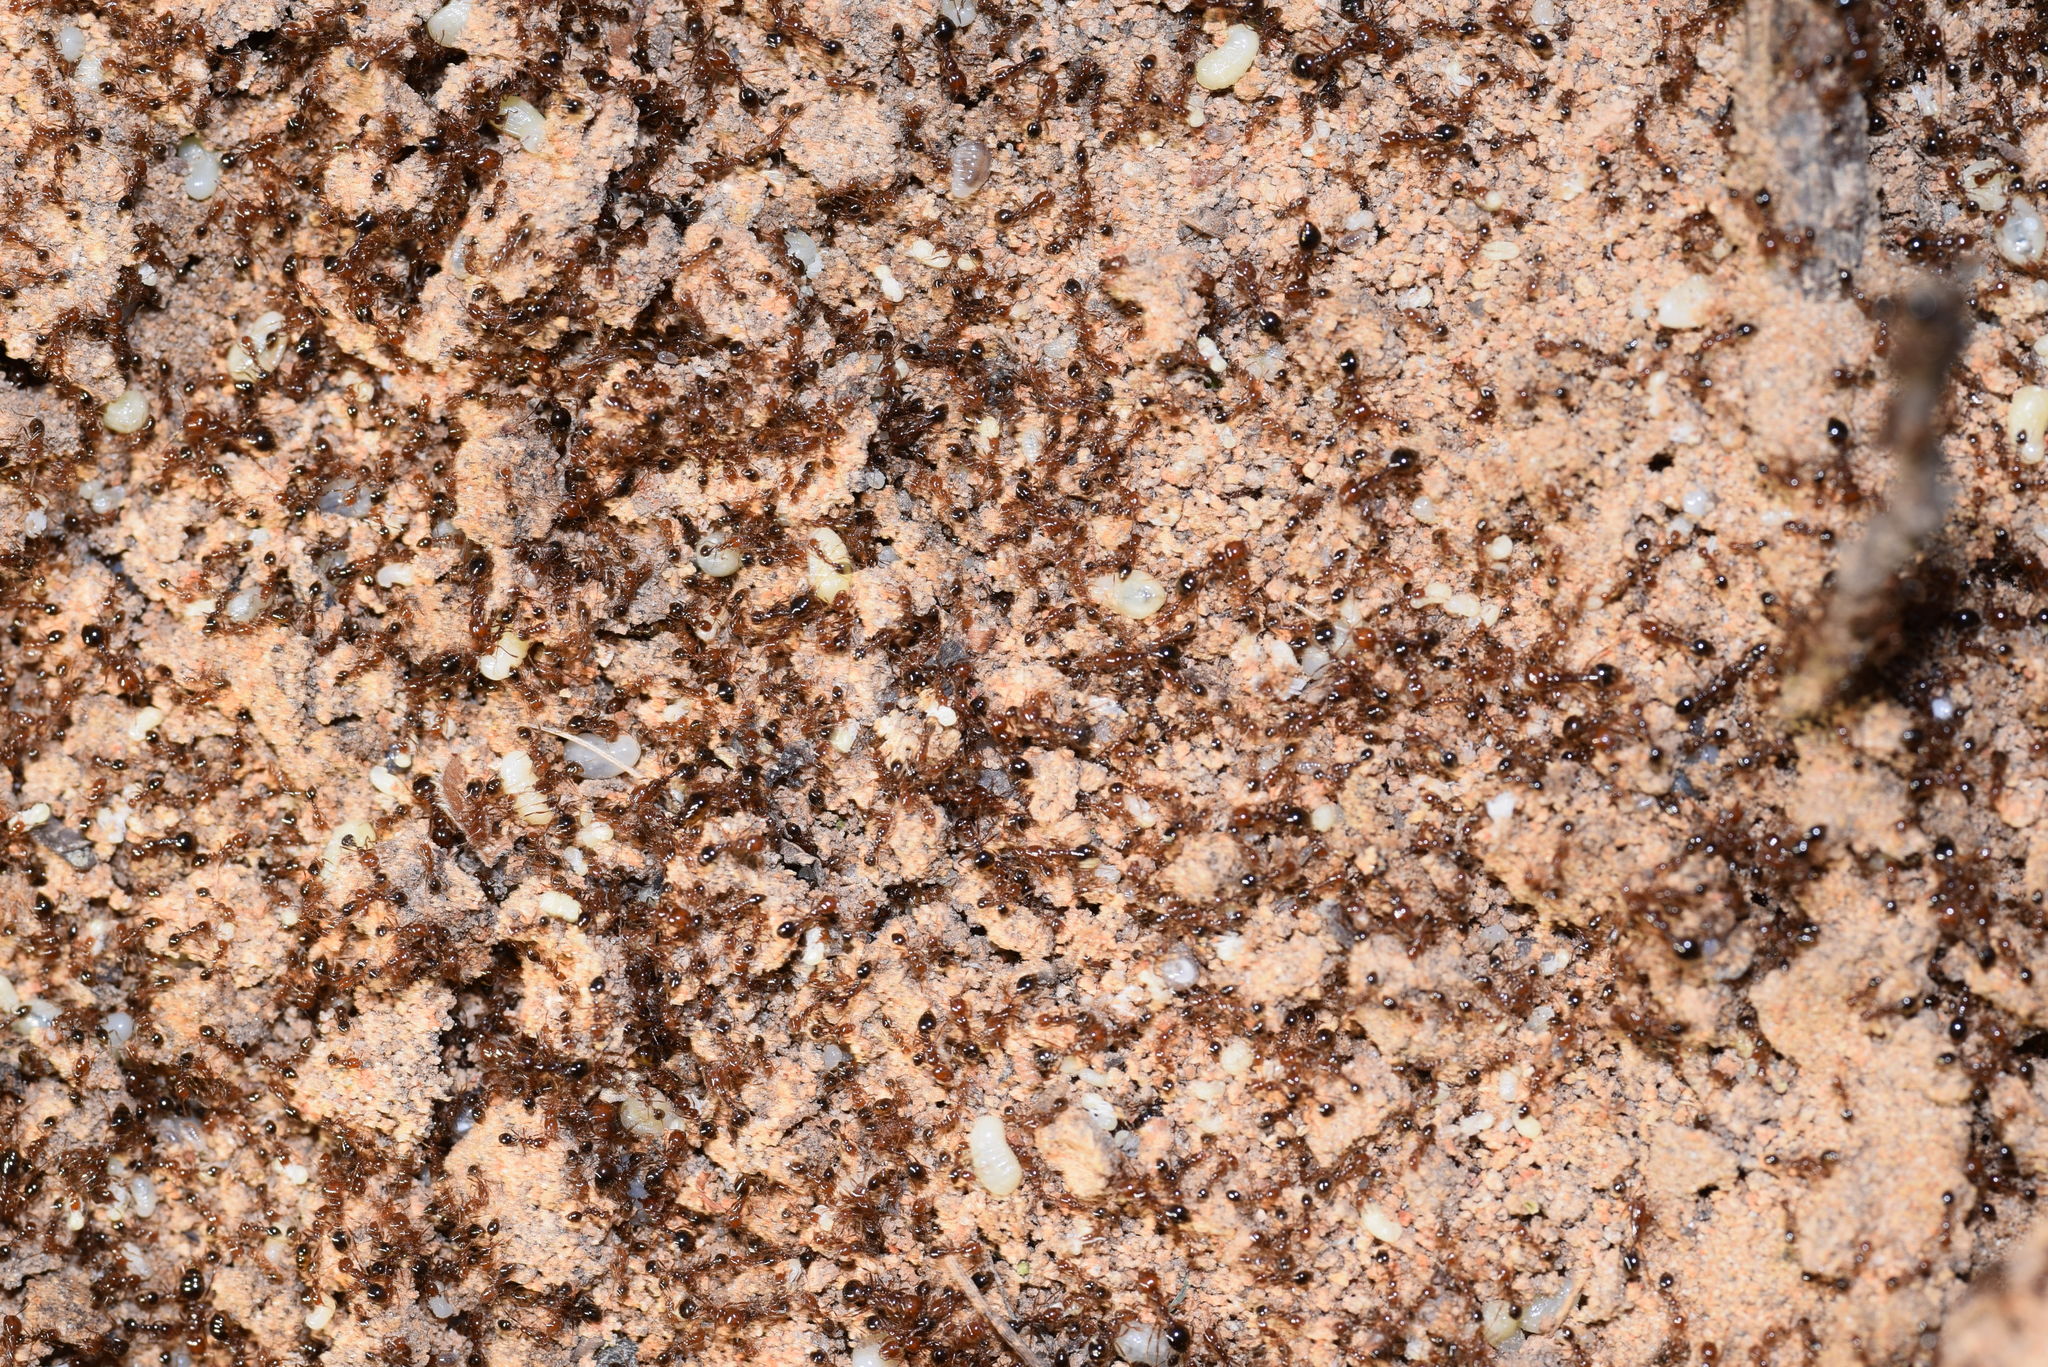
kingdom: Animalia
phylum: Arthropoda
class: Insecta
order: Hymenoptera
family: Formicidae
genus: Solenopsis
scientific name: Solenopsis invicta
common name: Red imported fire ant
